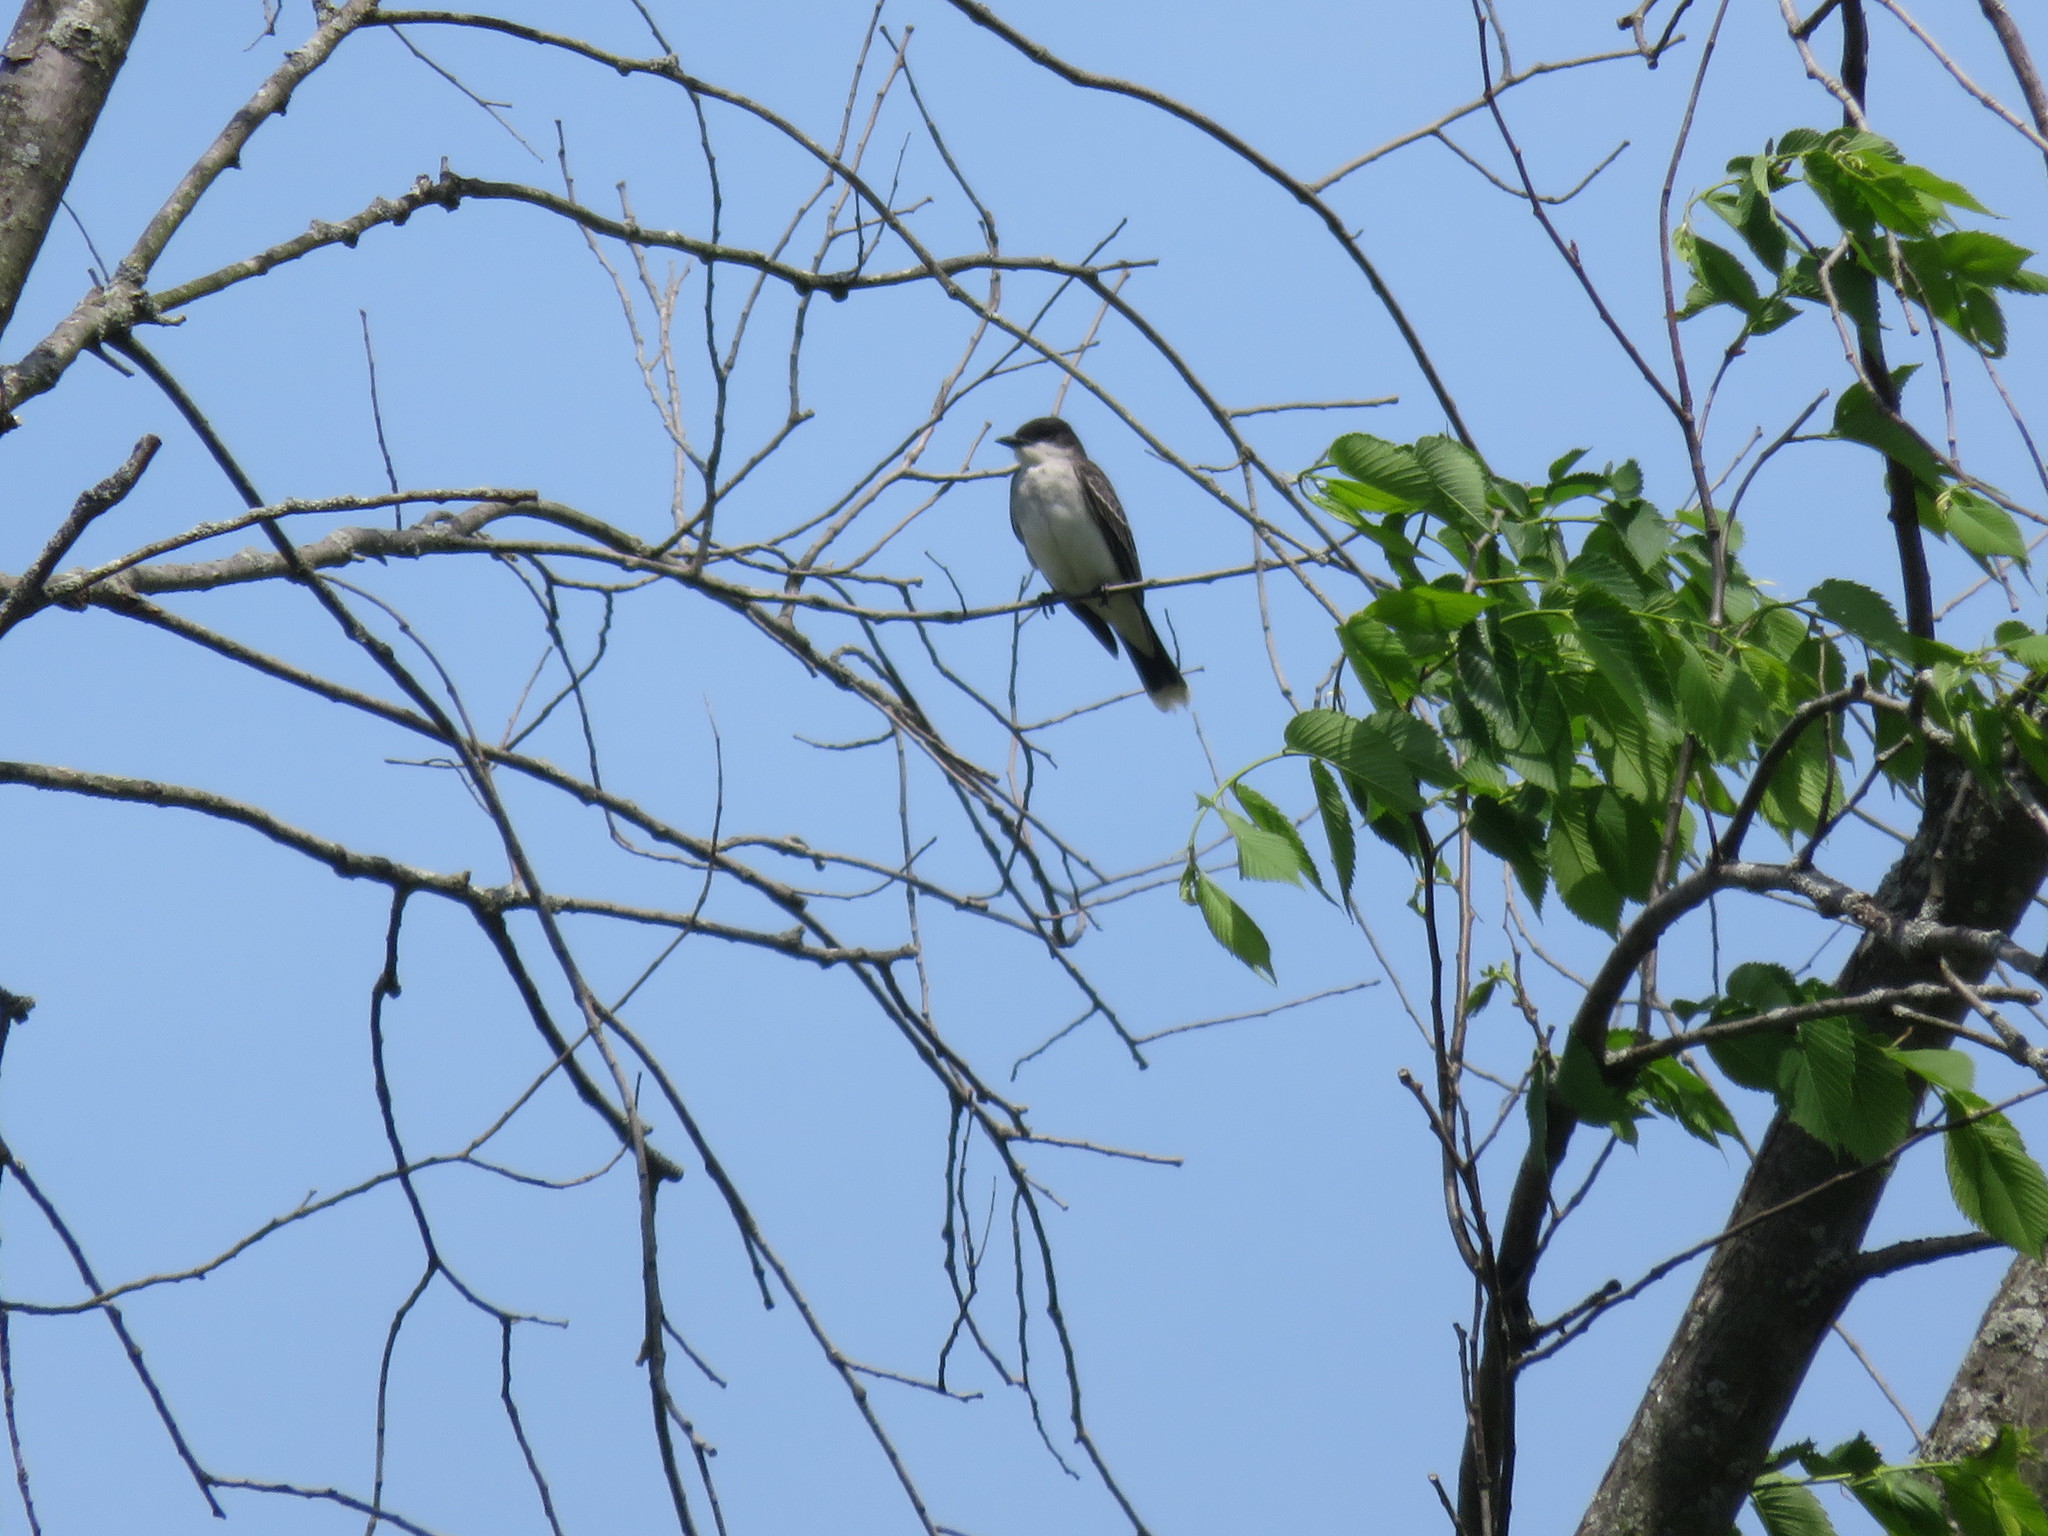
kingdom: Animalia
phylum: Chordata
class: Aves
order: Passeriformes
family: Tyrannidae
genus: Tyrannus
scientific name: Tyrannus tyrannus
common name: Eastern kingbird
